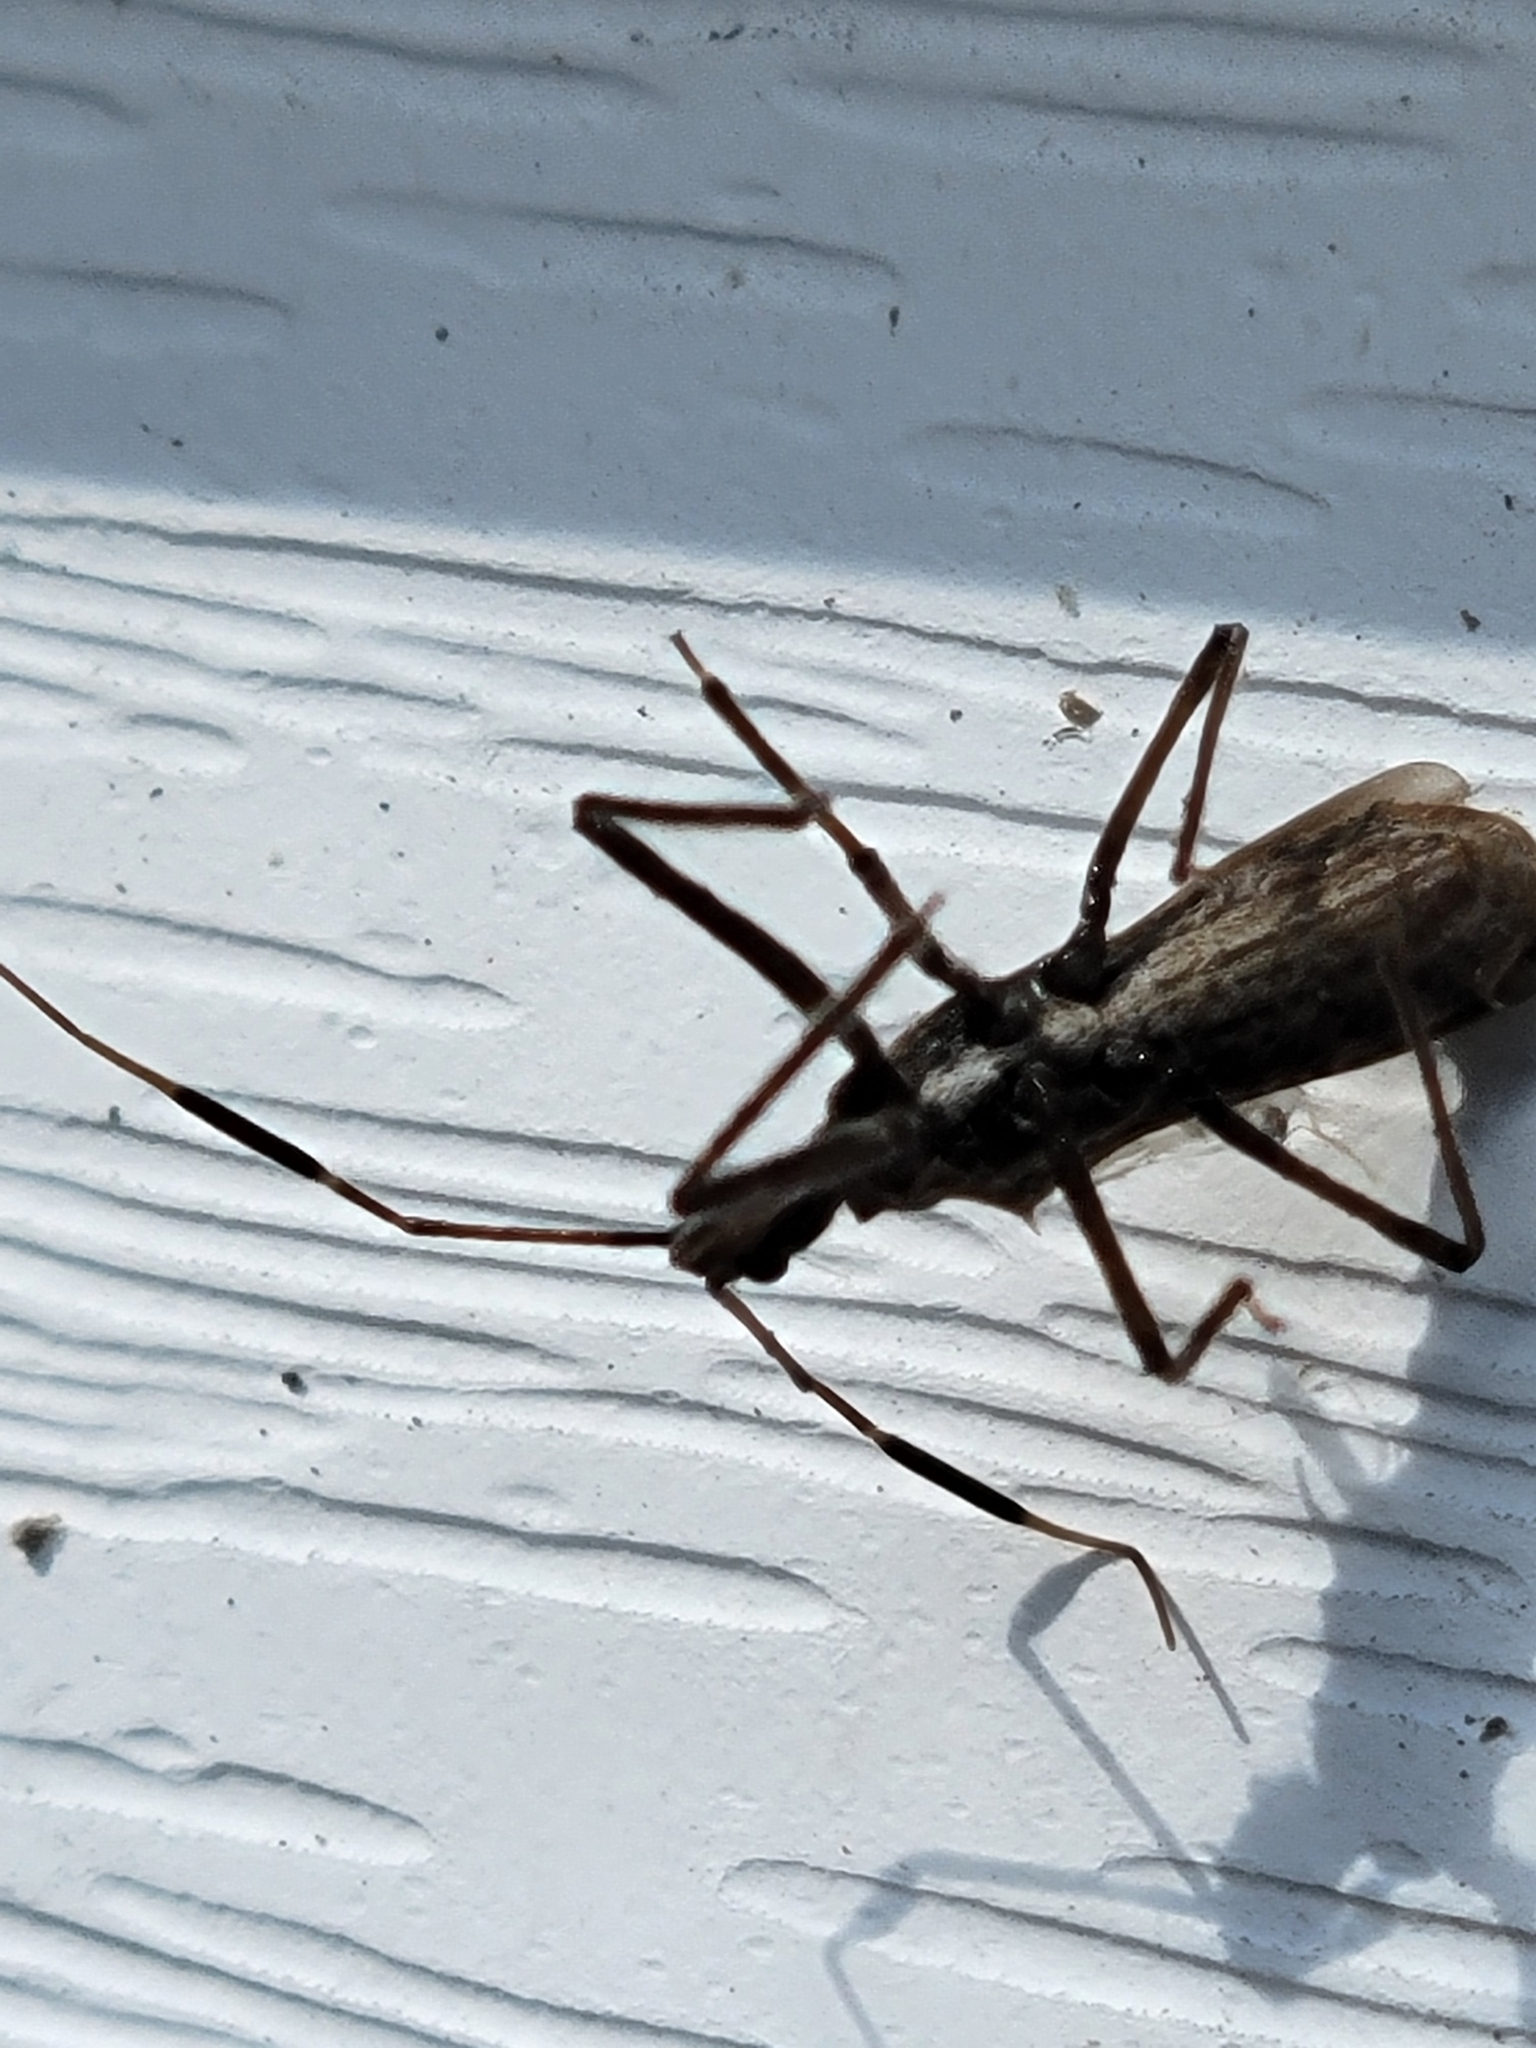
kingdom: Animalia
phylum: Arthropoda
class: Insecta
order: Hemiptera
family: Reduviidae
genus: Atrachelus
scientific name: Atrachelus cinereus
